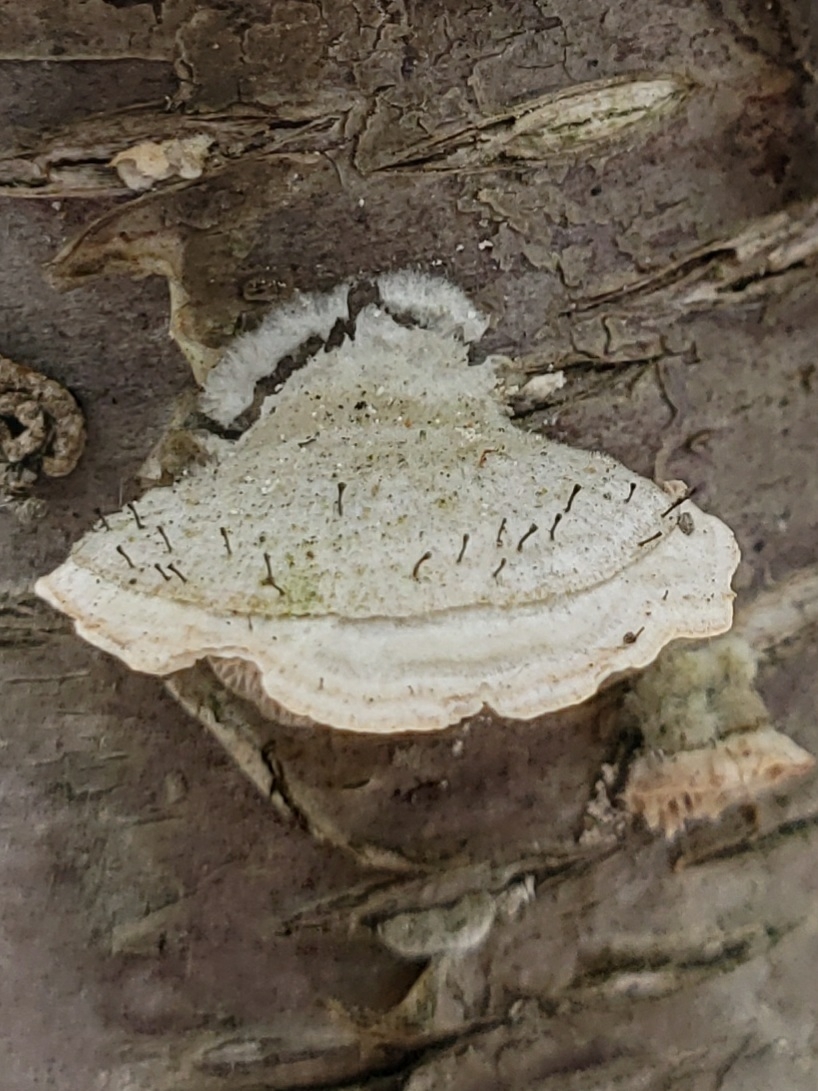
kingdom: Fungi
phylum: Ascomycota
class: Eurotiomycetes
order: Mycocaliciales
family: Mycocaliciaceae
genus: Phaeocalicium
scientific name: Phaeocalicium polyporaeum
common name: Fairy pins
